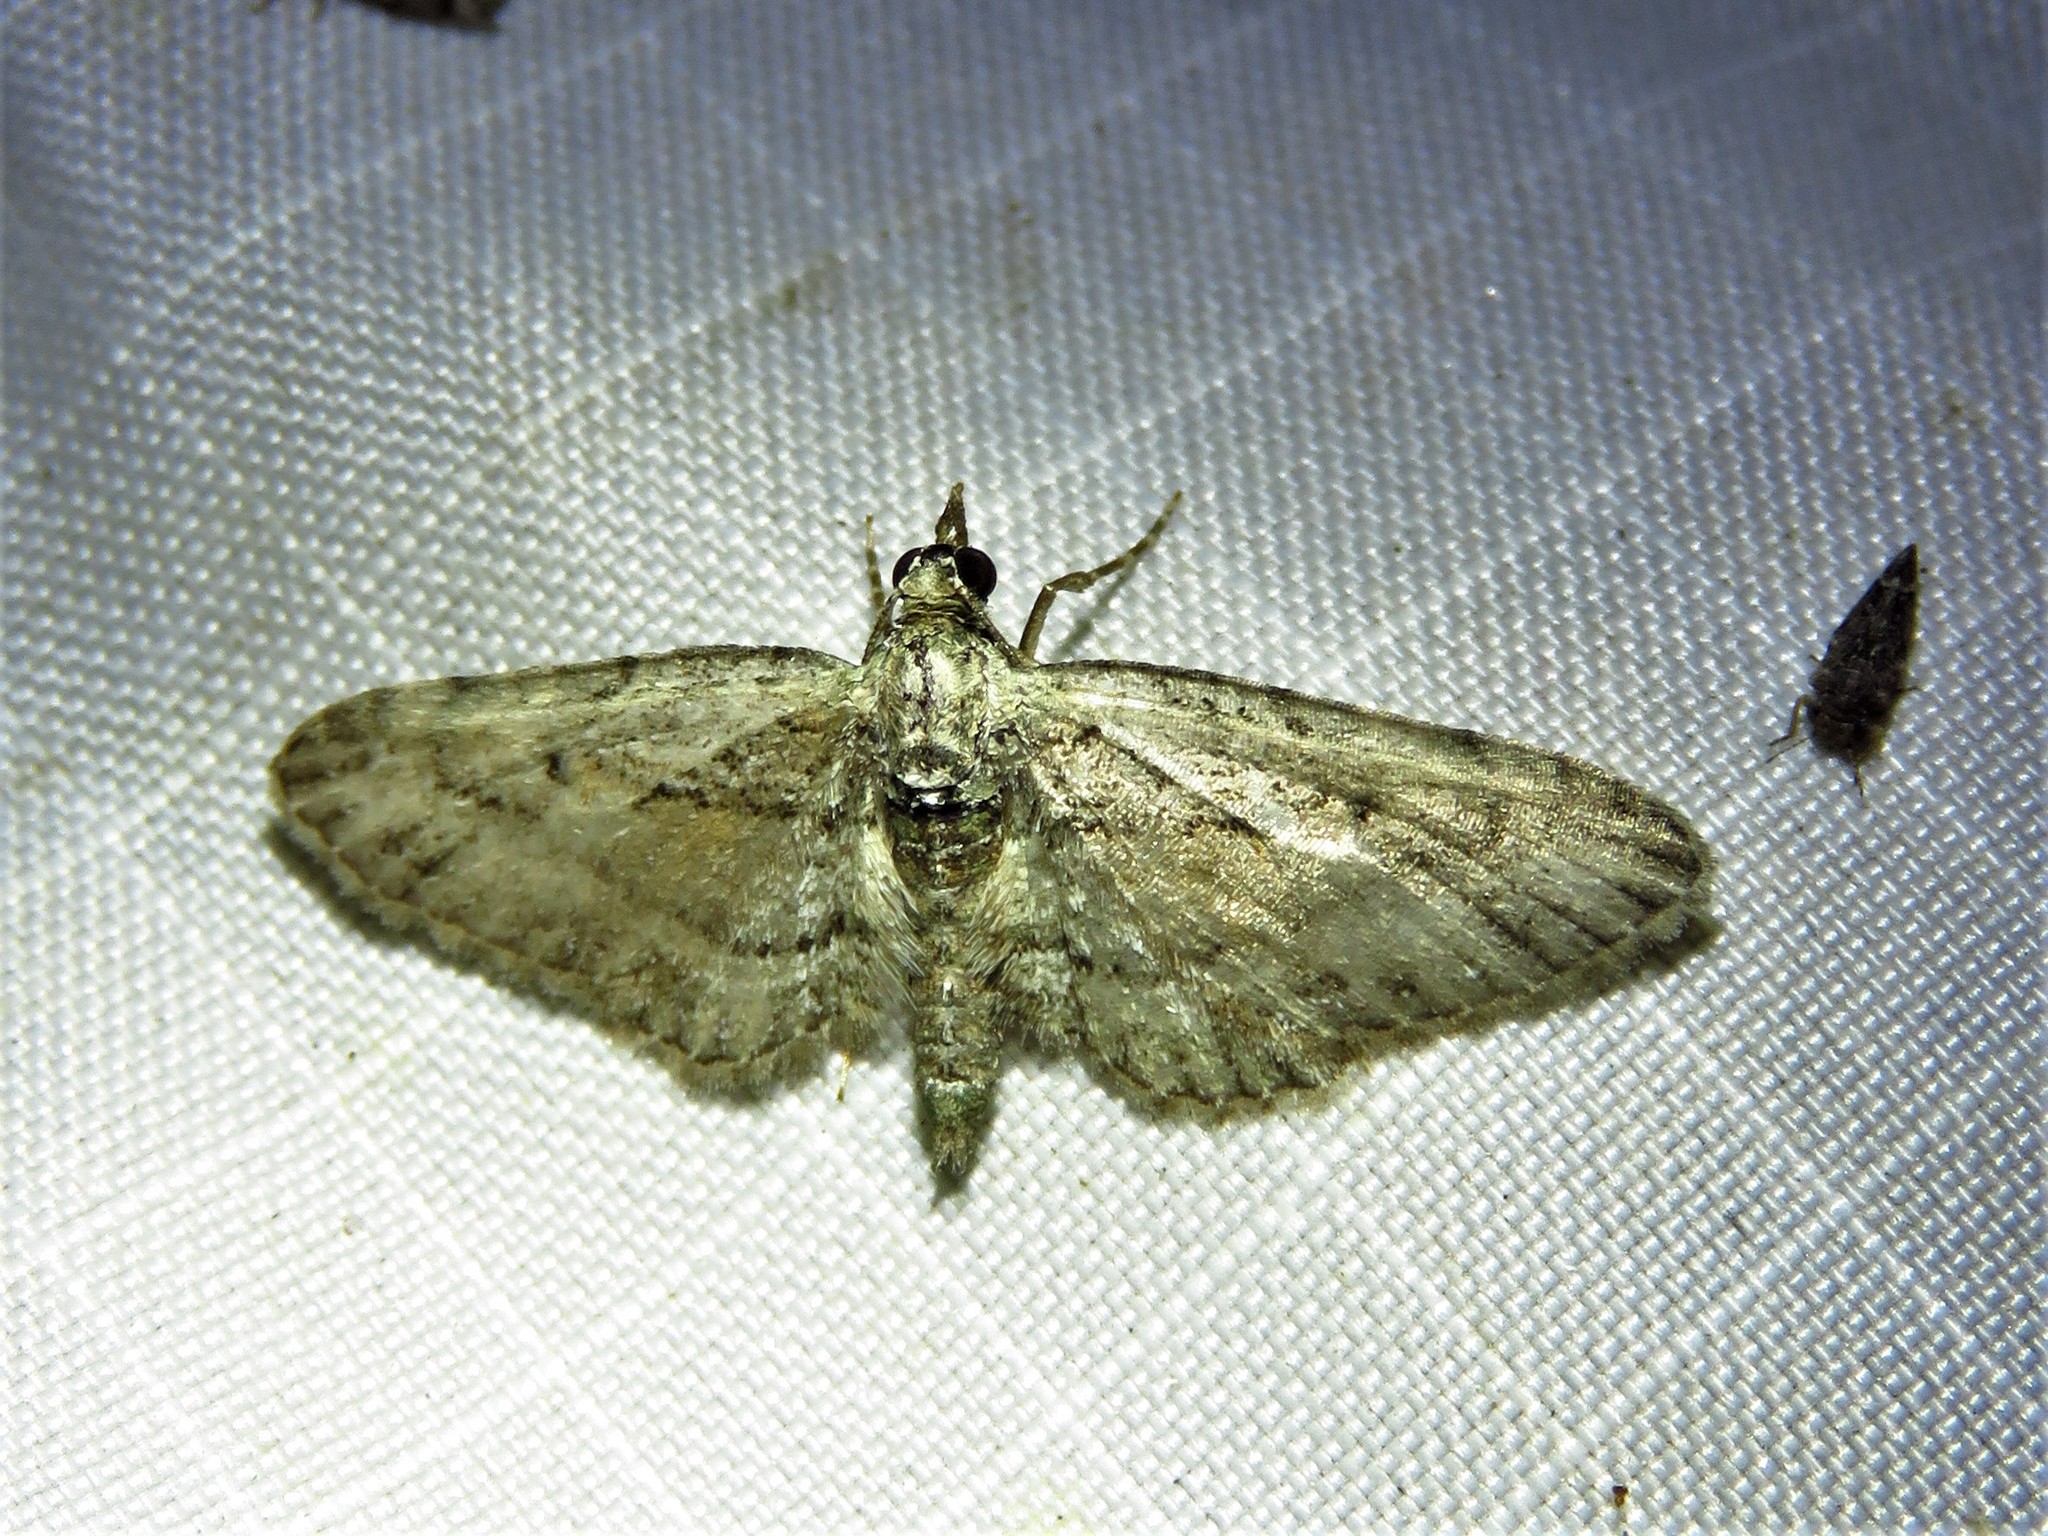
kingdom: Animalia
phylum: Arthropoda
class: Insecta
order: Lepidoptera
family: Geometridae
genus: Eupithecia
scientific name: Eupithecia longidens
